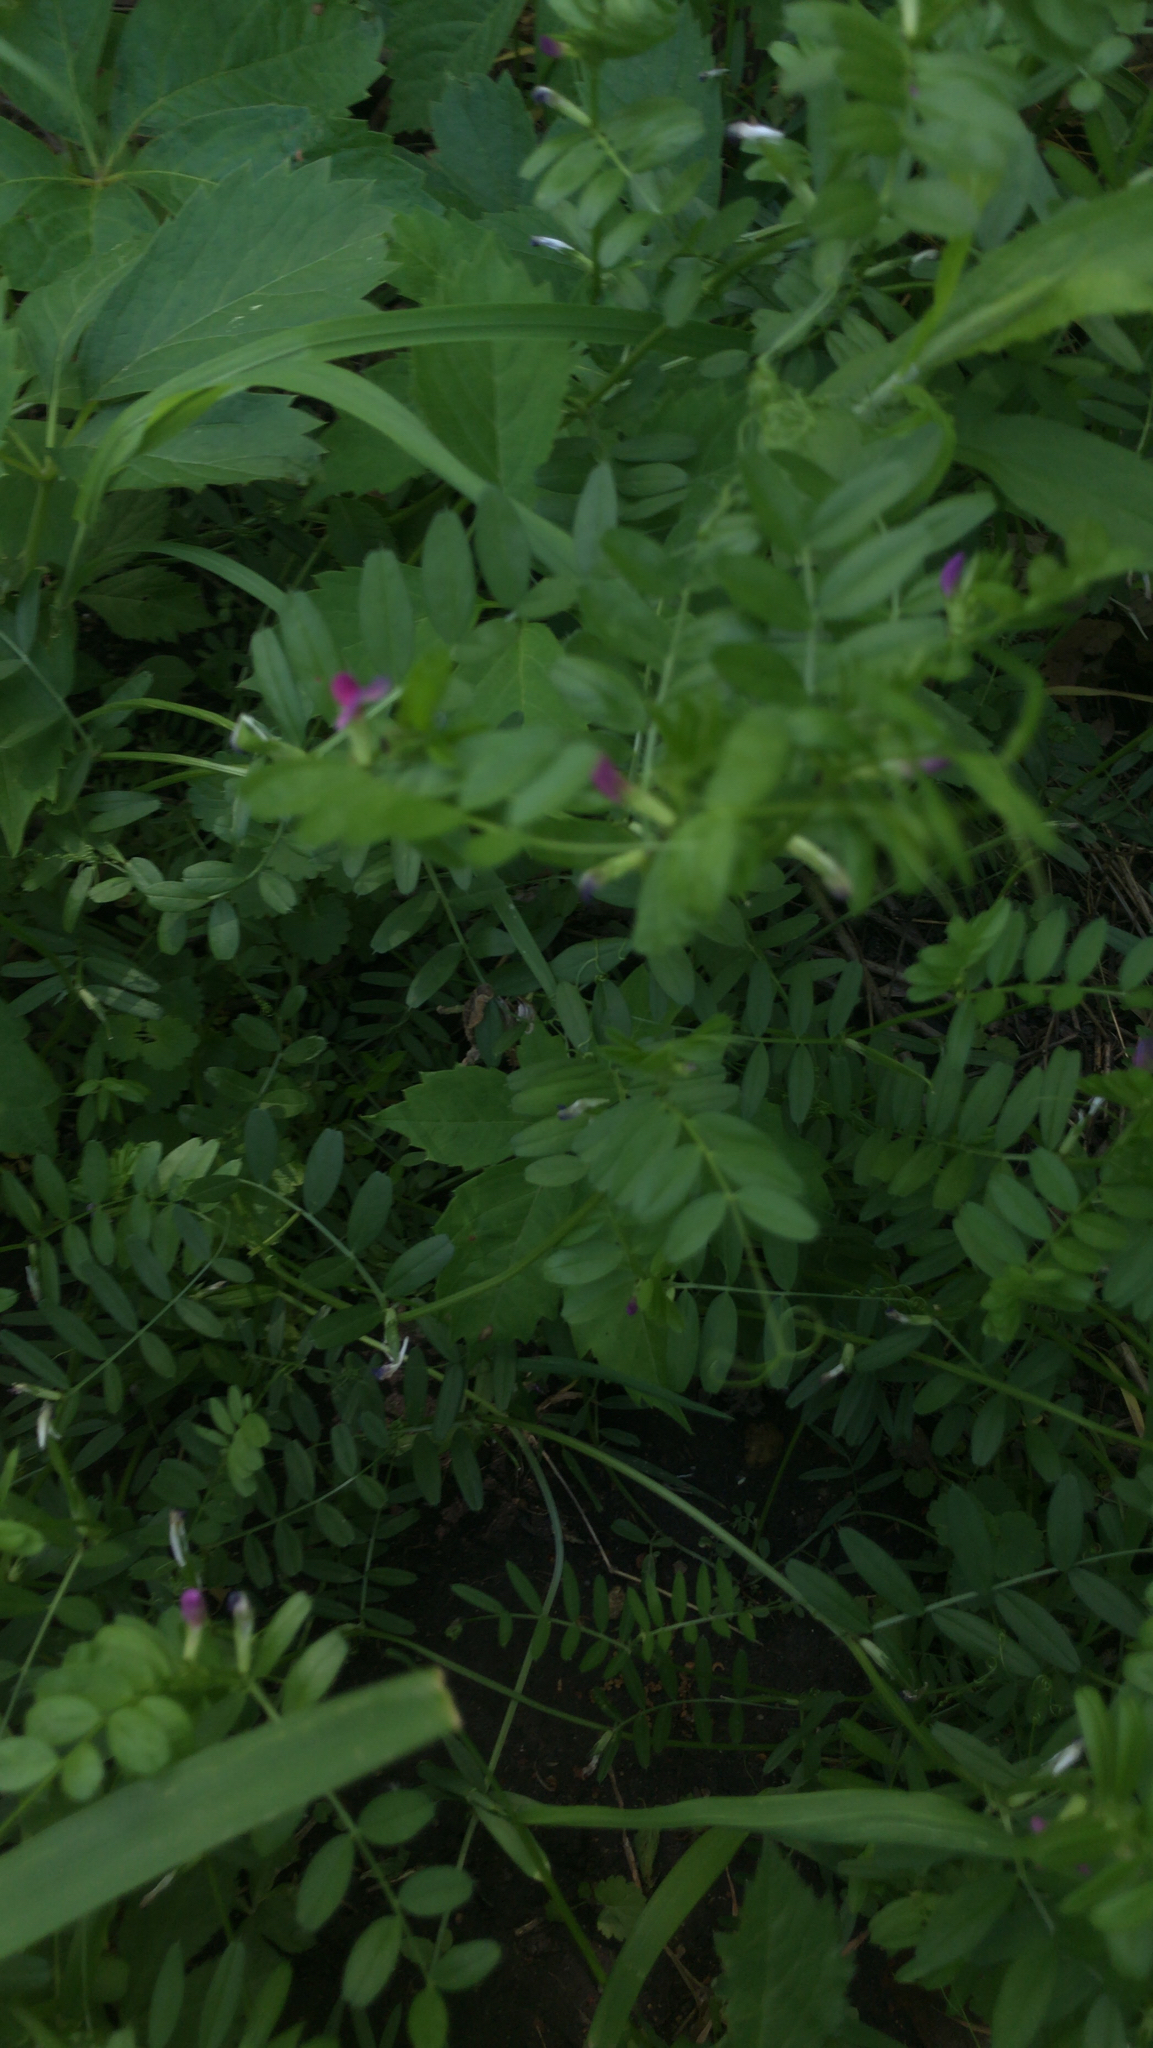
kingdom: Plantae
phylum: Tracheophyta
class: Magnoliopsida
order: Fabales
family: Fabaceae
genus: Vicia
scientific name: Vicia sativa
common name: Garden vetch
